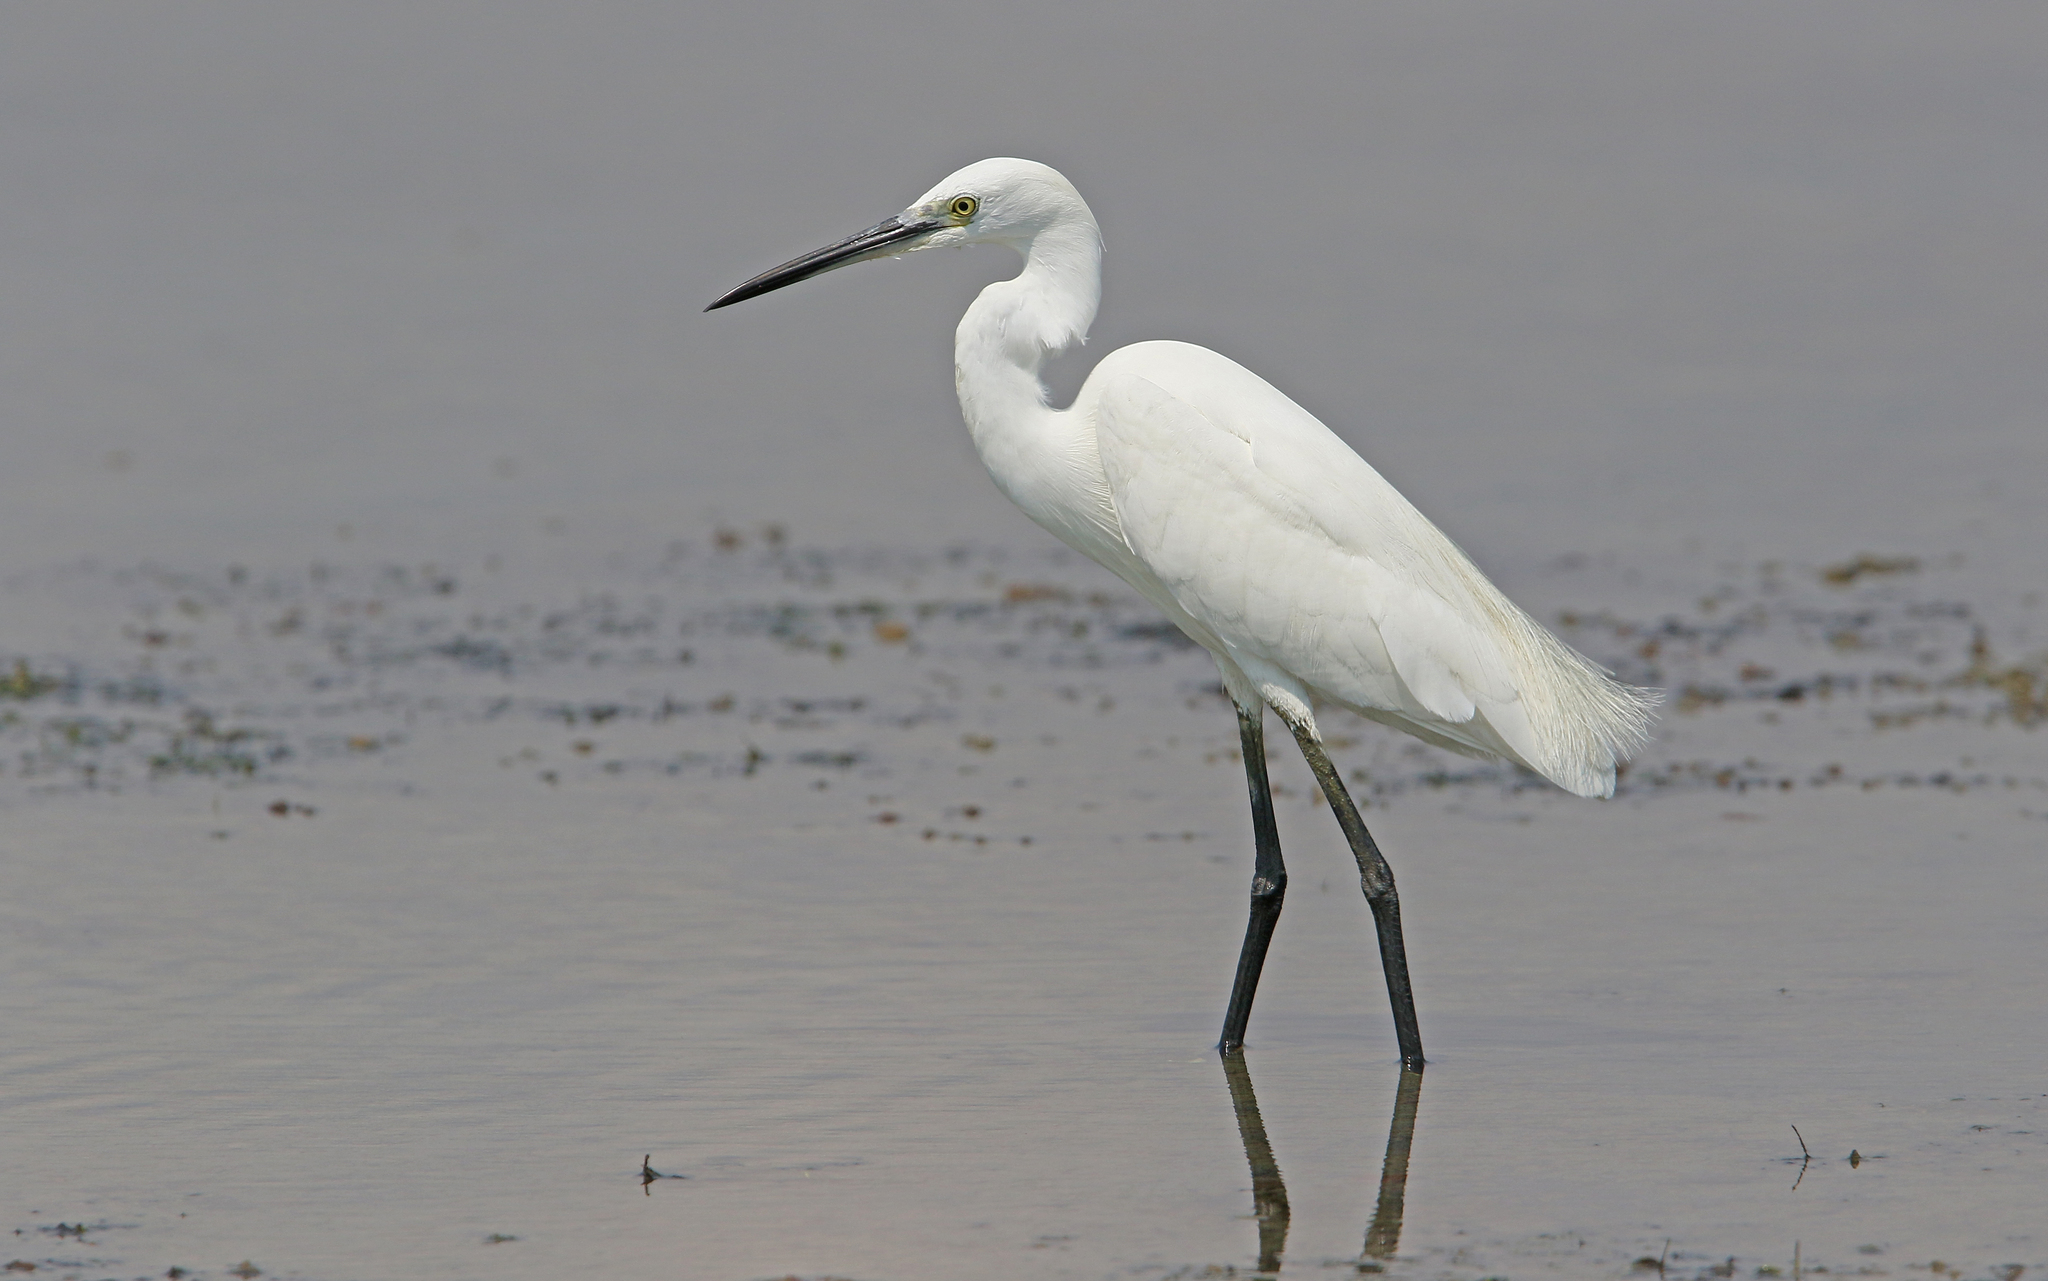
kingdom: Animalia
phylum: Chordata
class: Aves
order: Pelecaniformes
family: Ardeidae
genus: Egretta
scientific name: Egretta garzetta
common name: Little egret
